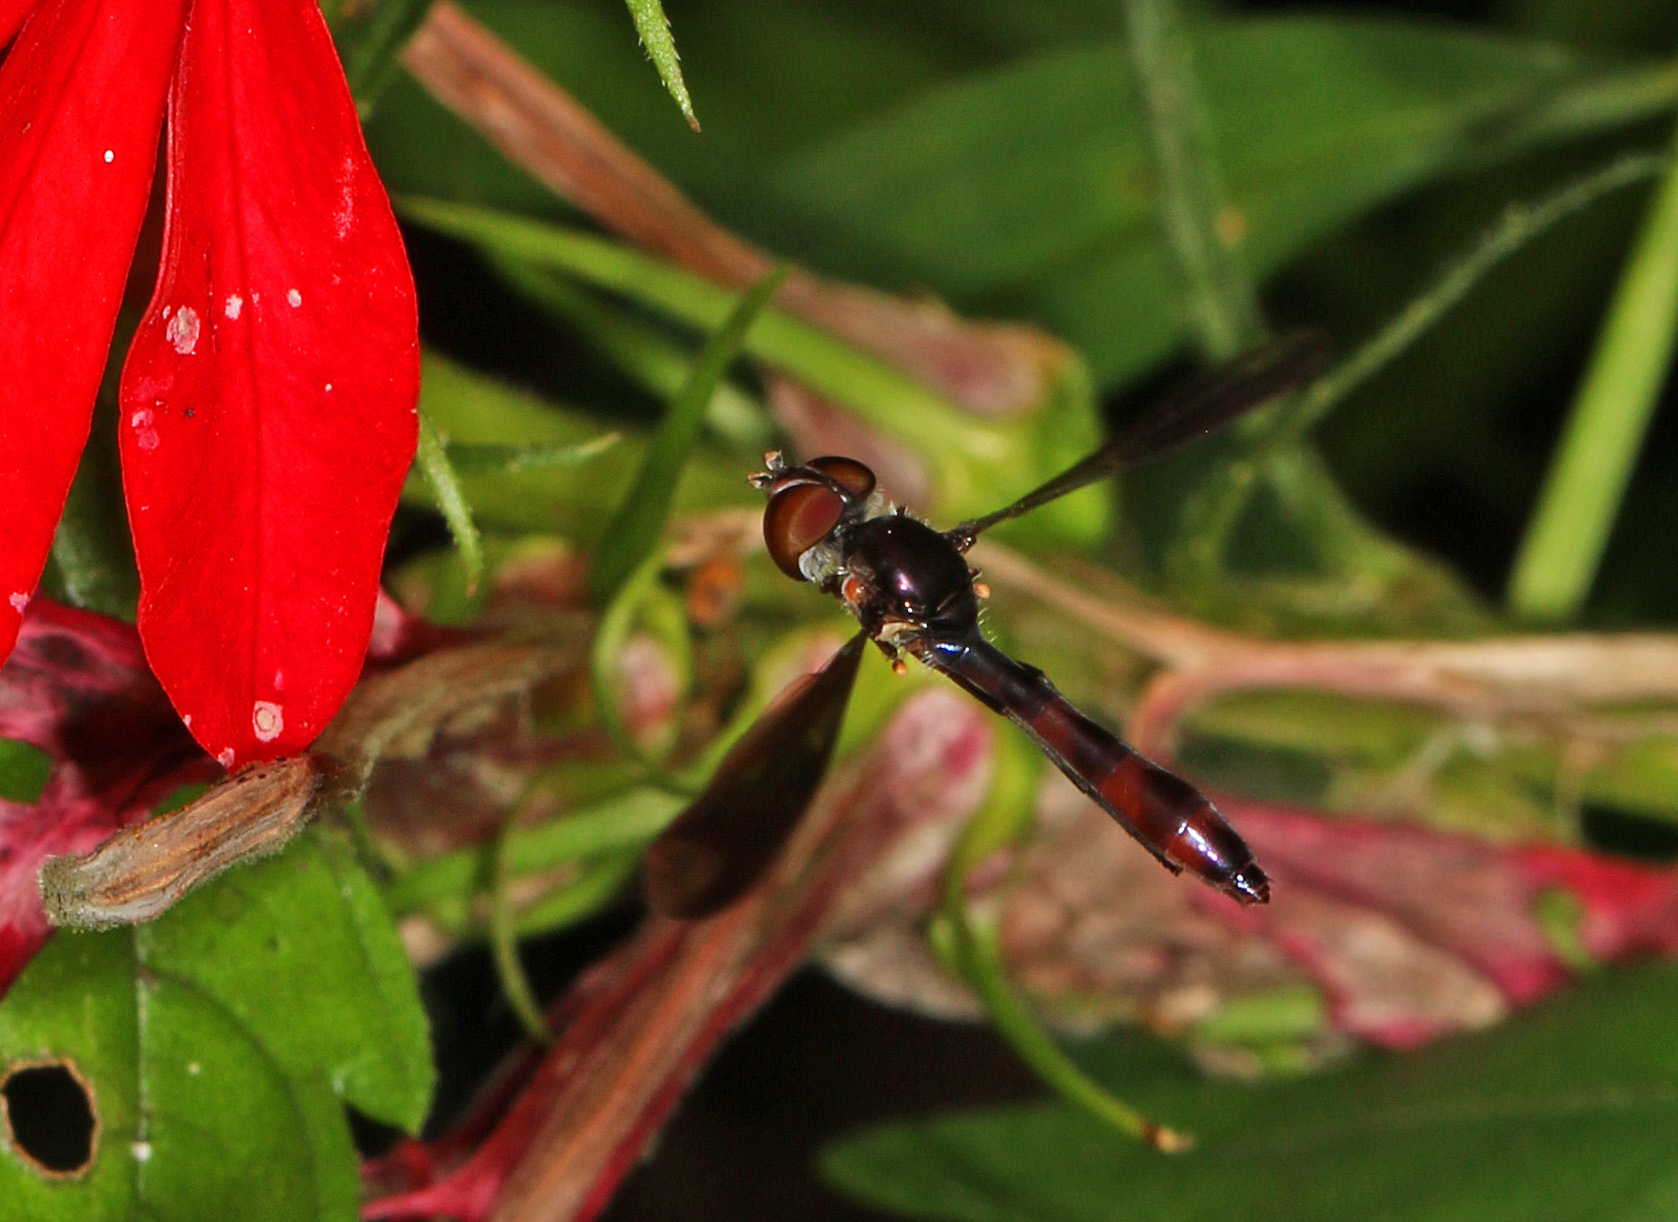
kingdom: Animalia
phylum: Arthropoda
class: Insecta
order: Diptera
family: Syrphidae
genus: Ocyptamus
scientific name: Ocyptamus fuscipennis
